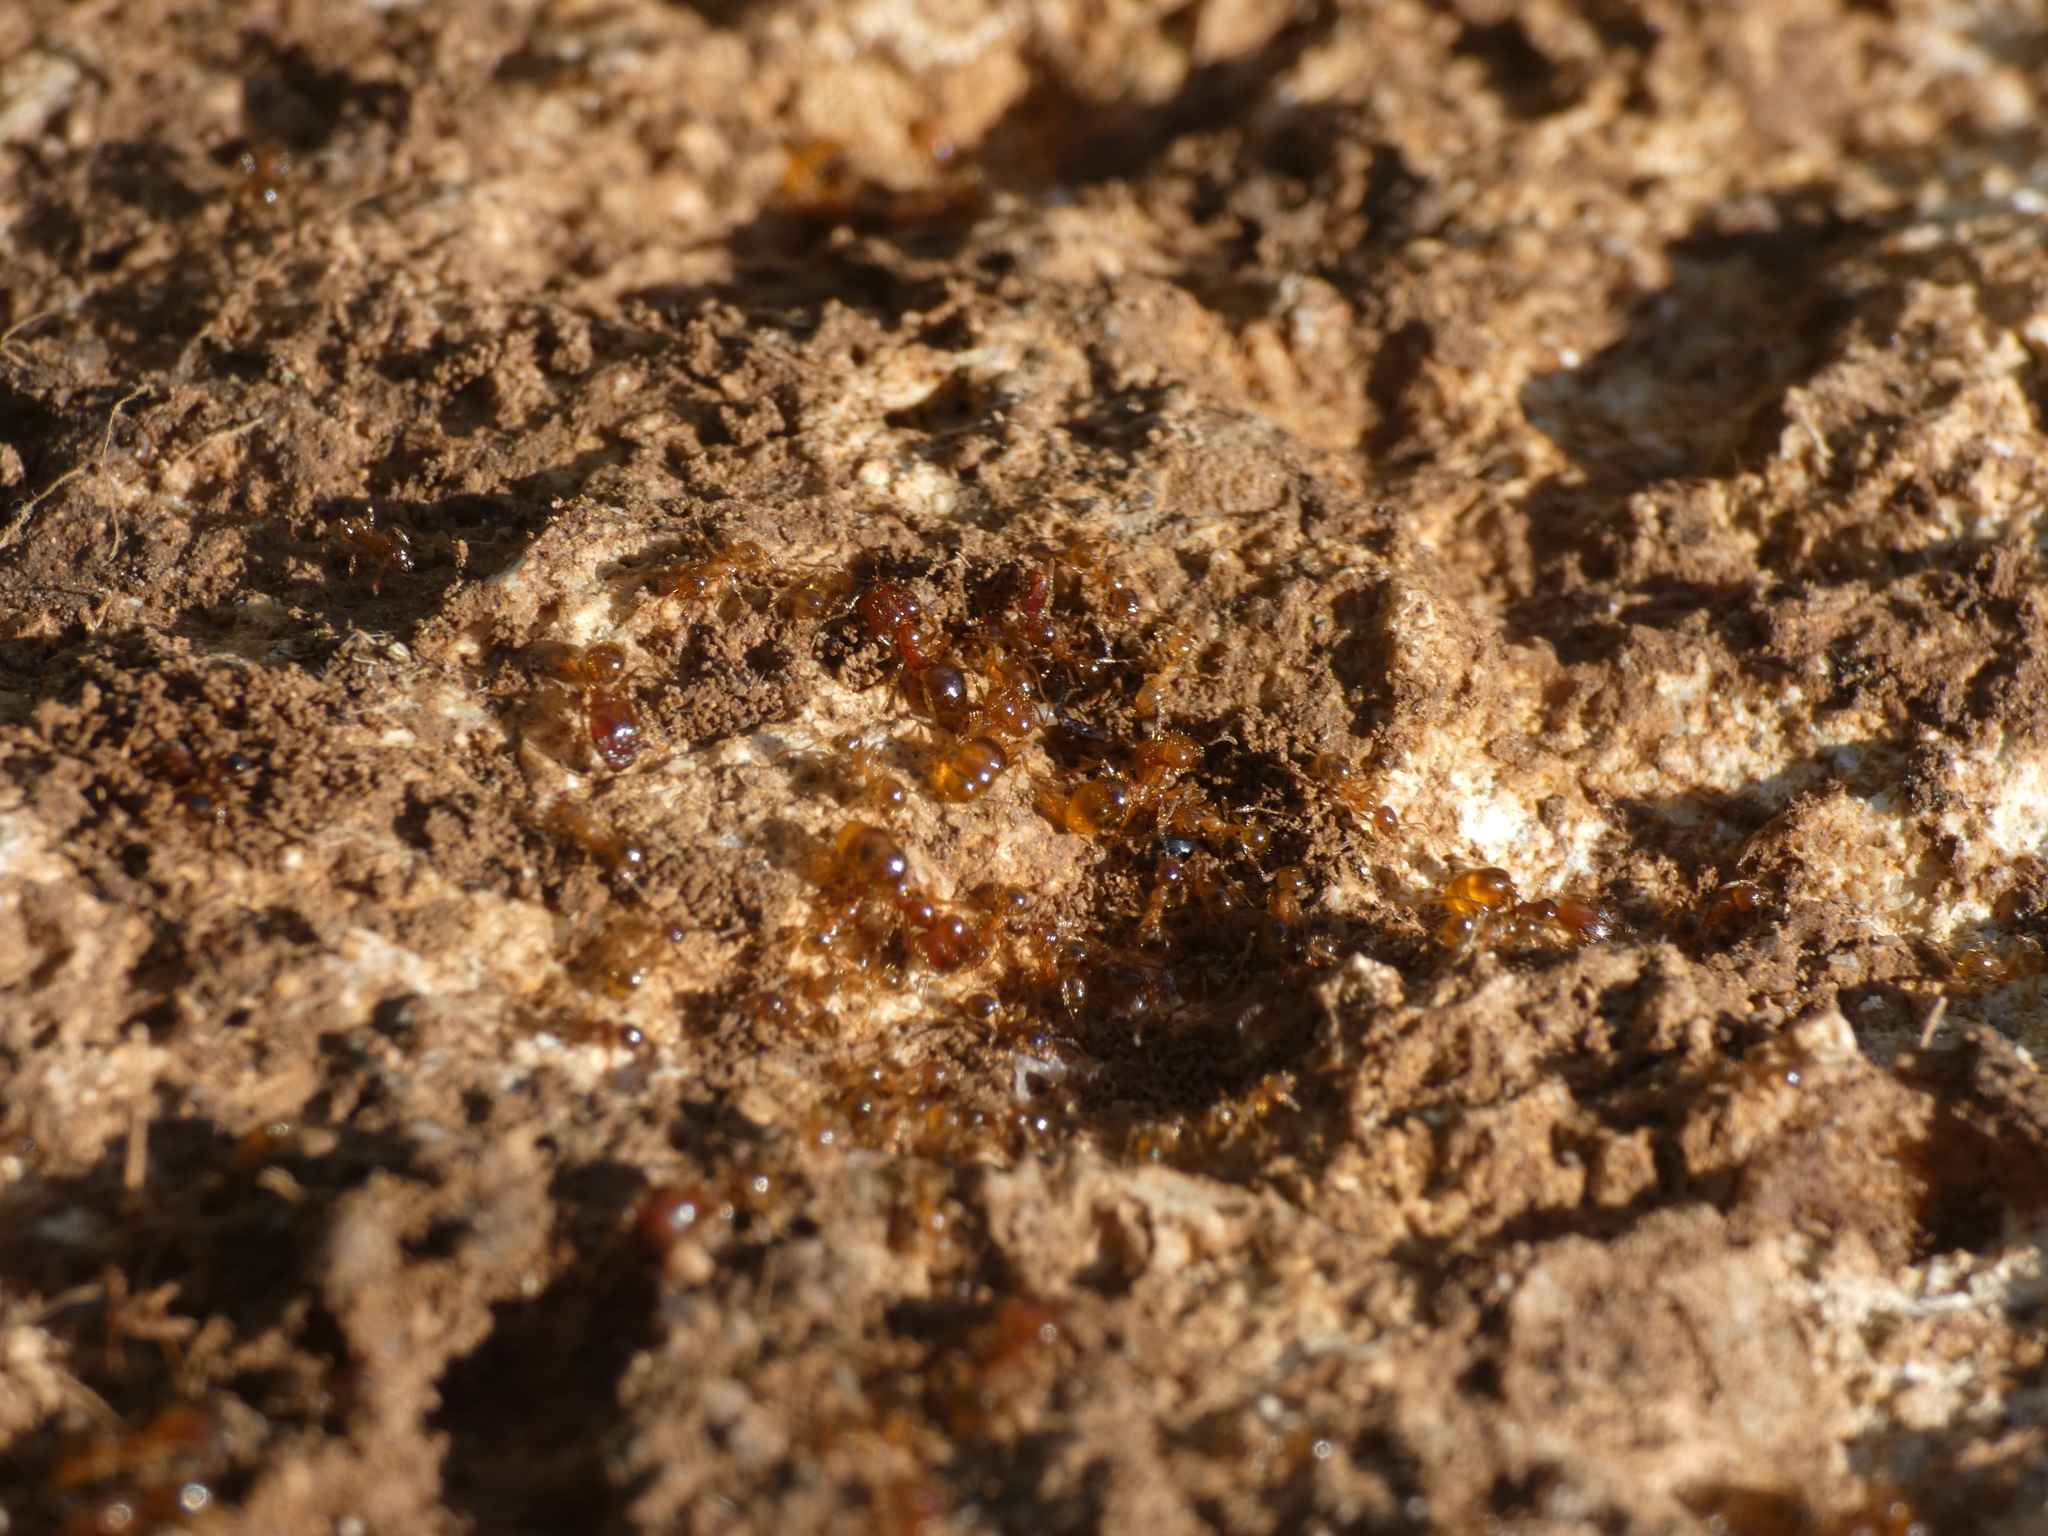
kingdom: Animalia
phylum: Arthropoda
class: Insecta
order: Hymenoptera
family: Formicidae
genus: Pheidole
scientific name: Pheidole pallidula
